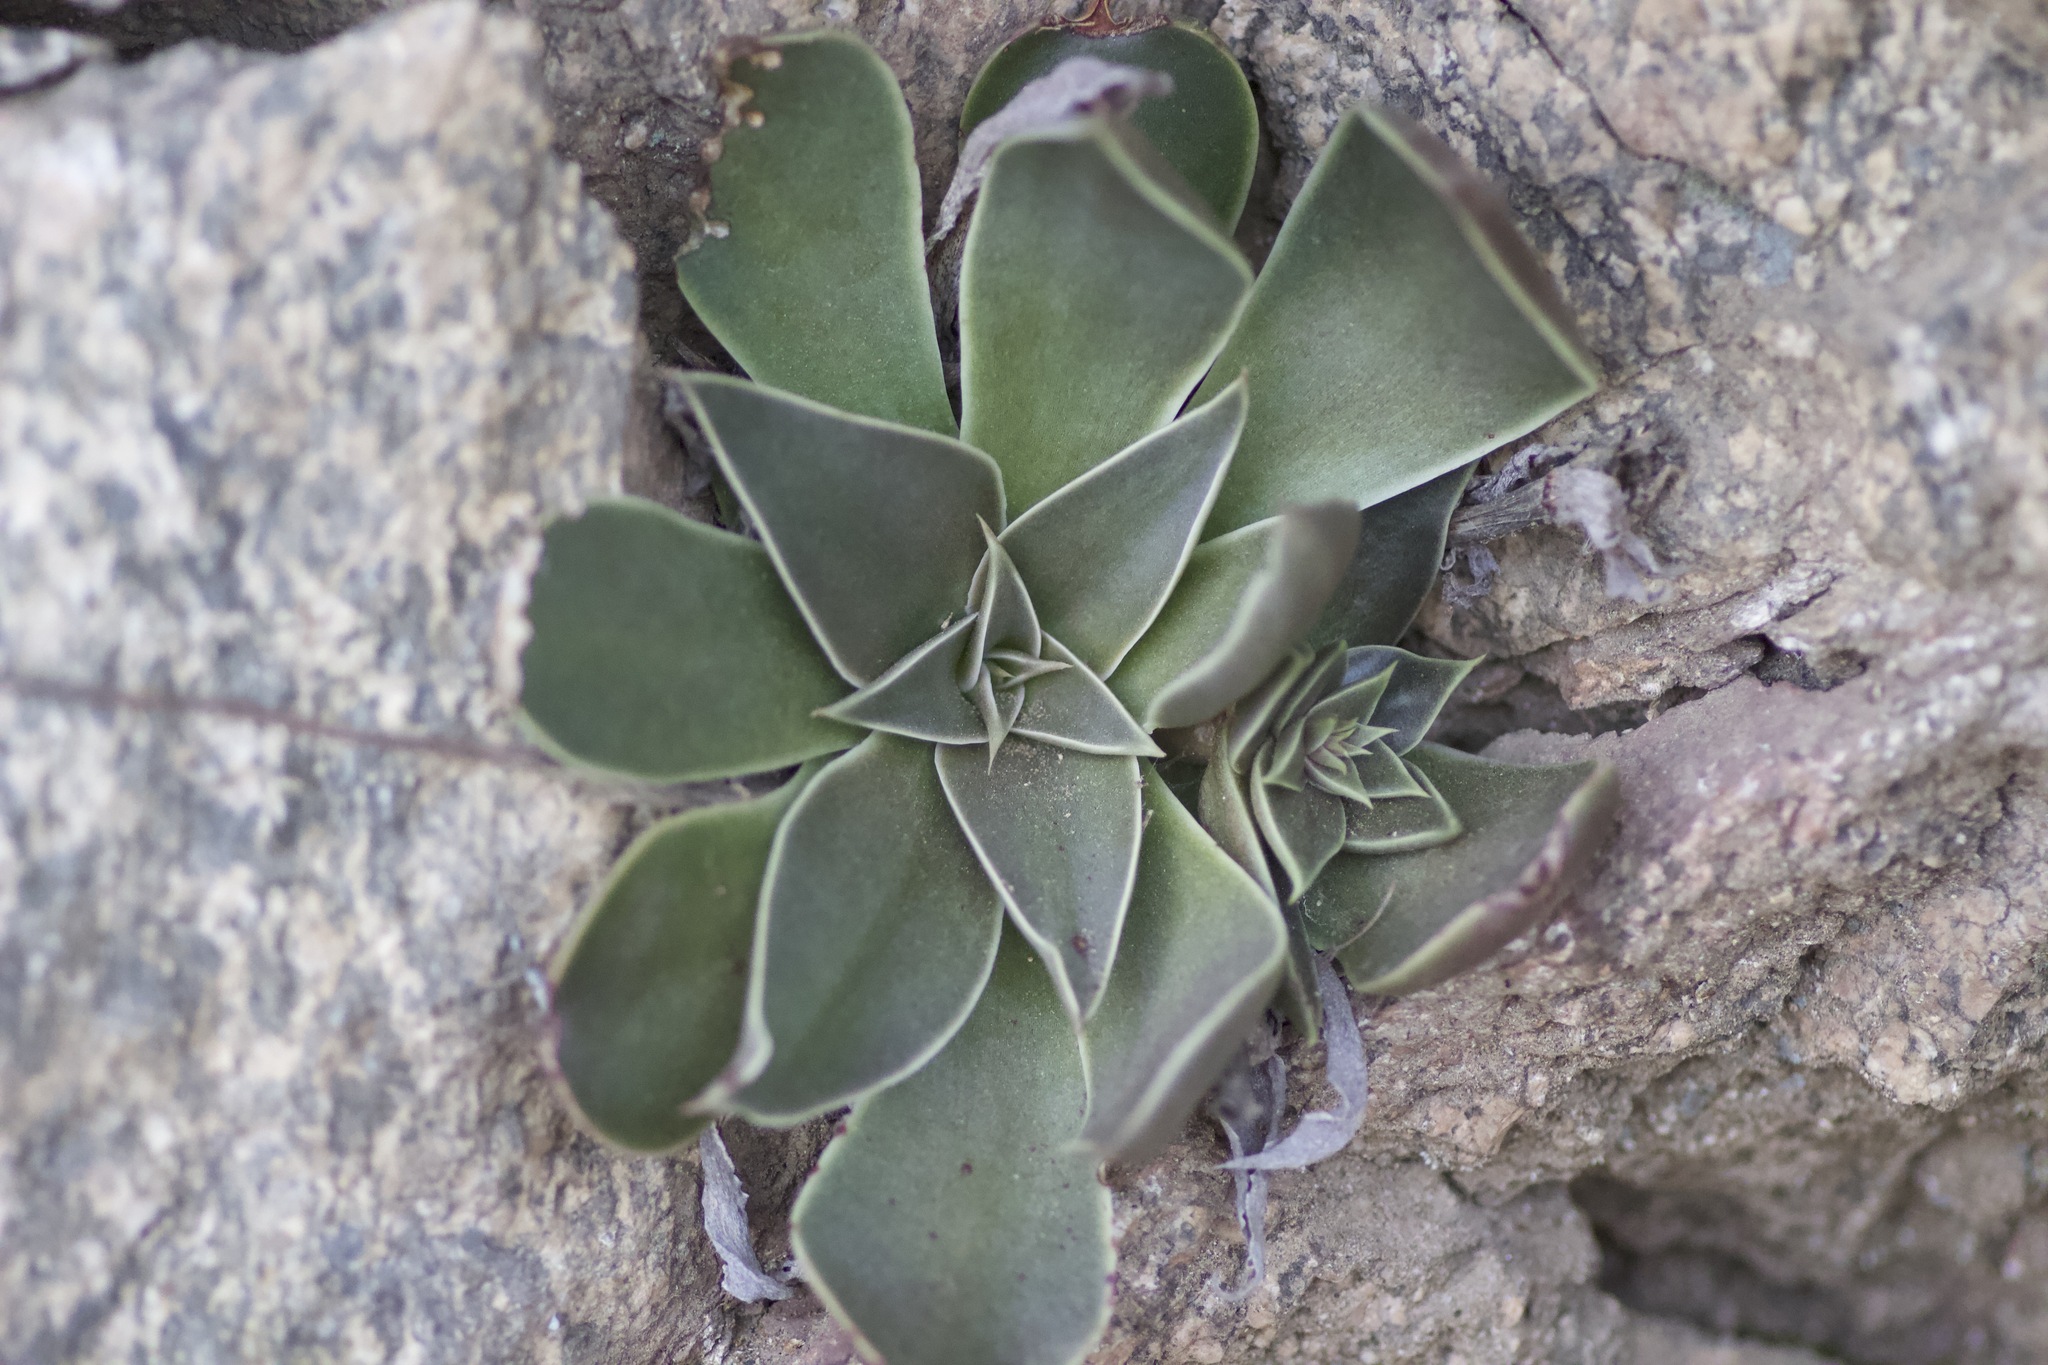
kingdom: Plantae
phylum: Tracheophyta
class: Magnoliopsida
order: Saxifragales
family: Crassulaceae
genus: Dudleya
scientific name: Dudleya cymosa
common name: Canyon dudleya
